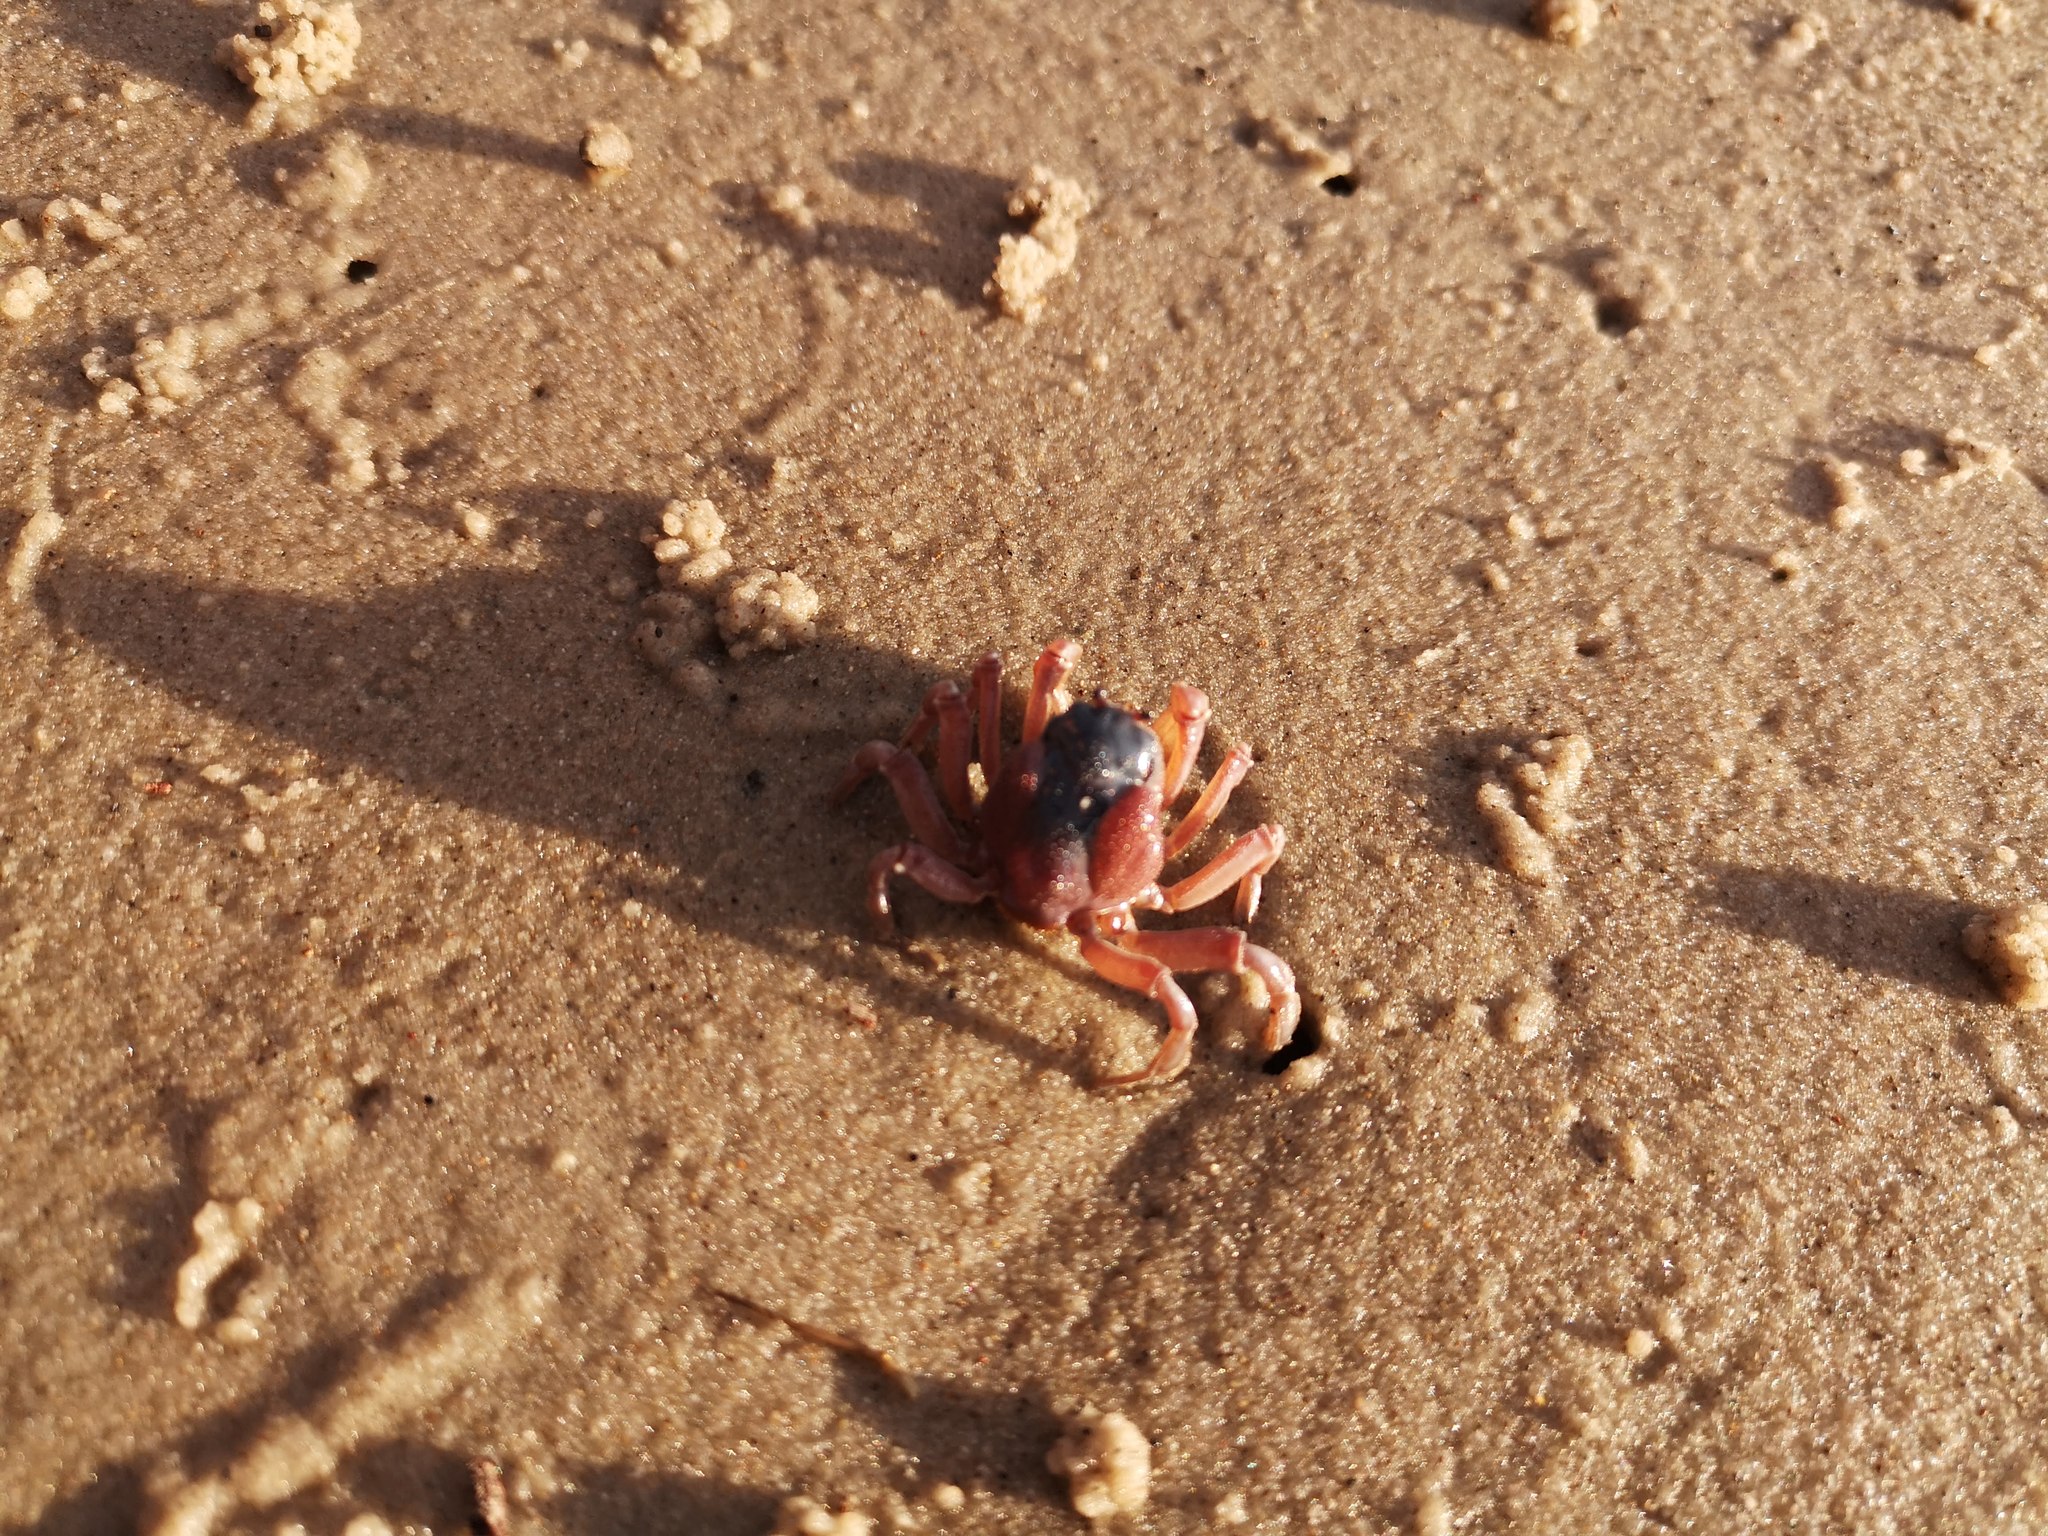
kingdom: Animalia
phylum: Arthropoda
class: Malacostraca
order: Decapoda
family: Mictyridae
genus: Mictyris
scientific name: Mictyris platycheles
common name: Dark blue soldier crab
